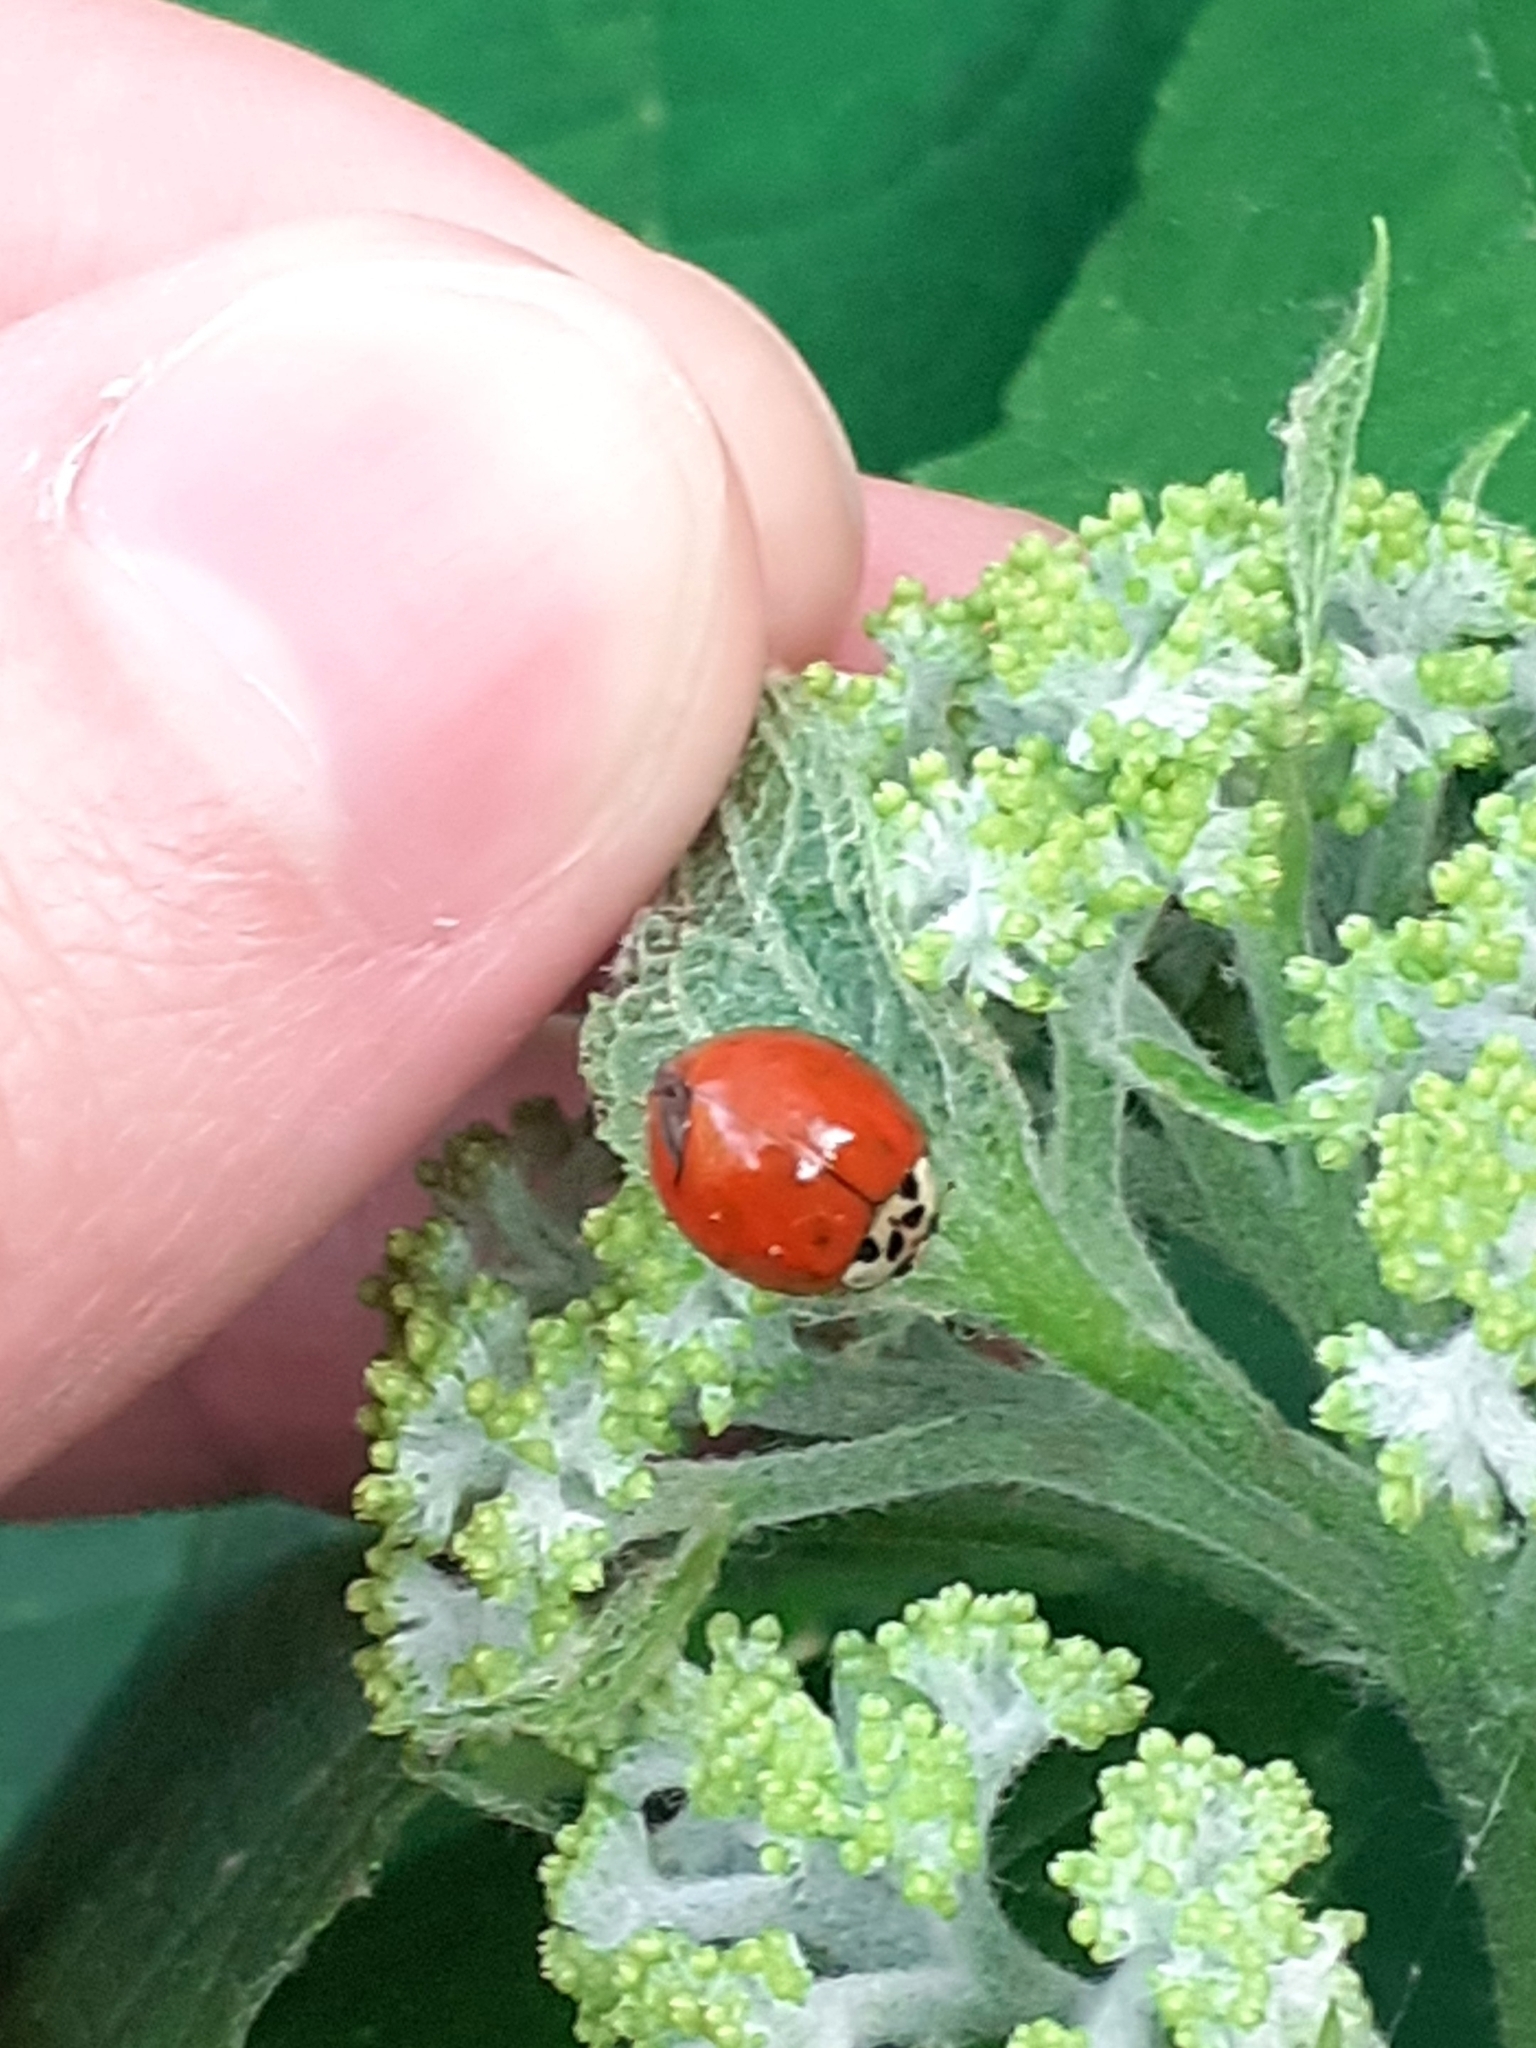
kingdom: Animalia
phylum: Arthropoda
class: Insecta
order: Coleoptera
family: Coccinellidae
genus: Harmonia
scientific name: Harmonia axyridis
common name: Harlequin ladybird
